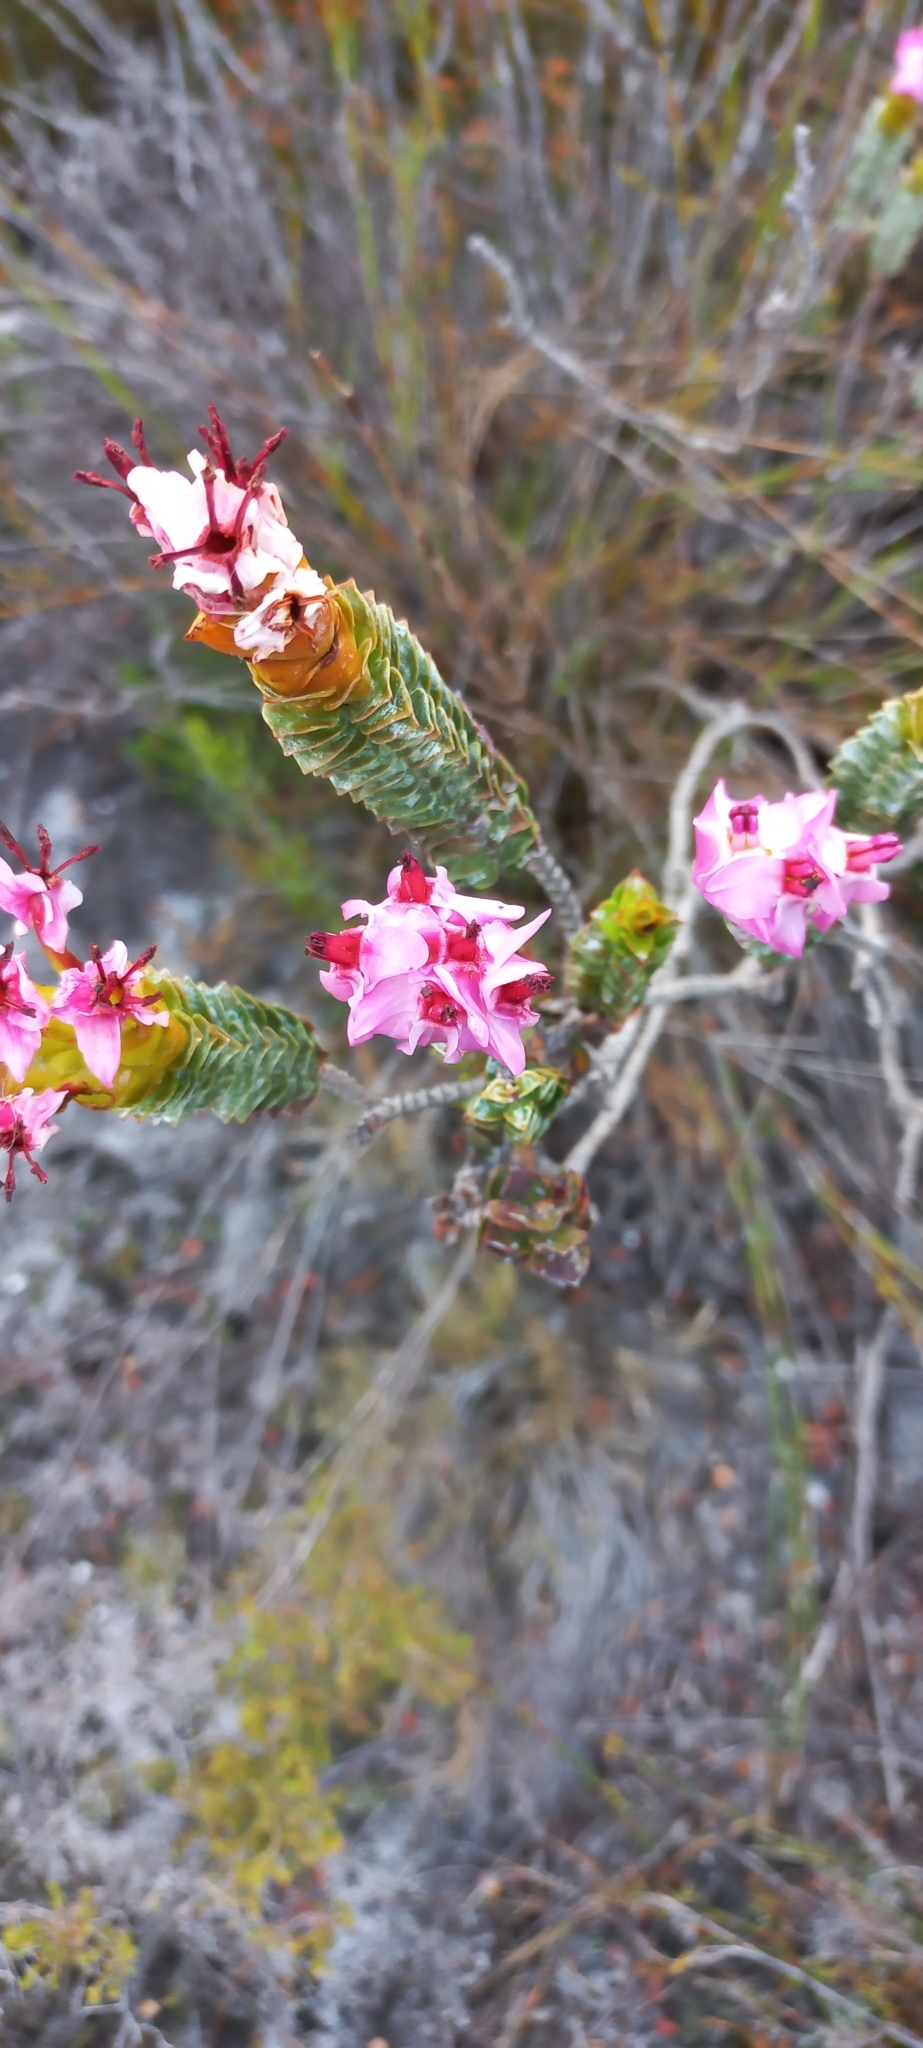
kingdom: Plantae
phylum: Tracheophyta
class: Magnoliopsida
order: Myrtales
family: Penaeaceae
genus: Saltera
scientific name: Saltera sarcocolla
